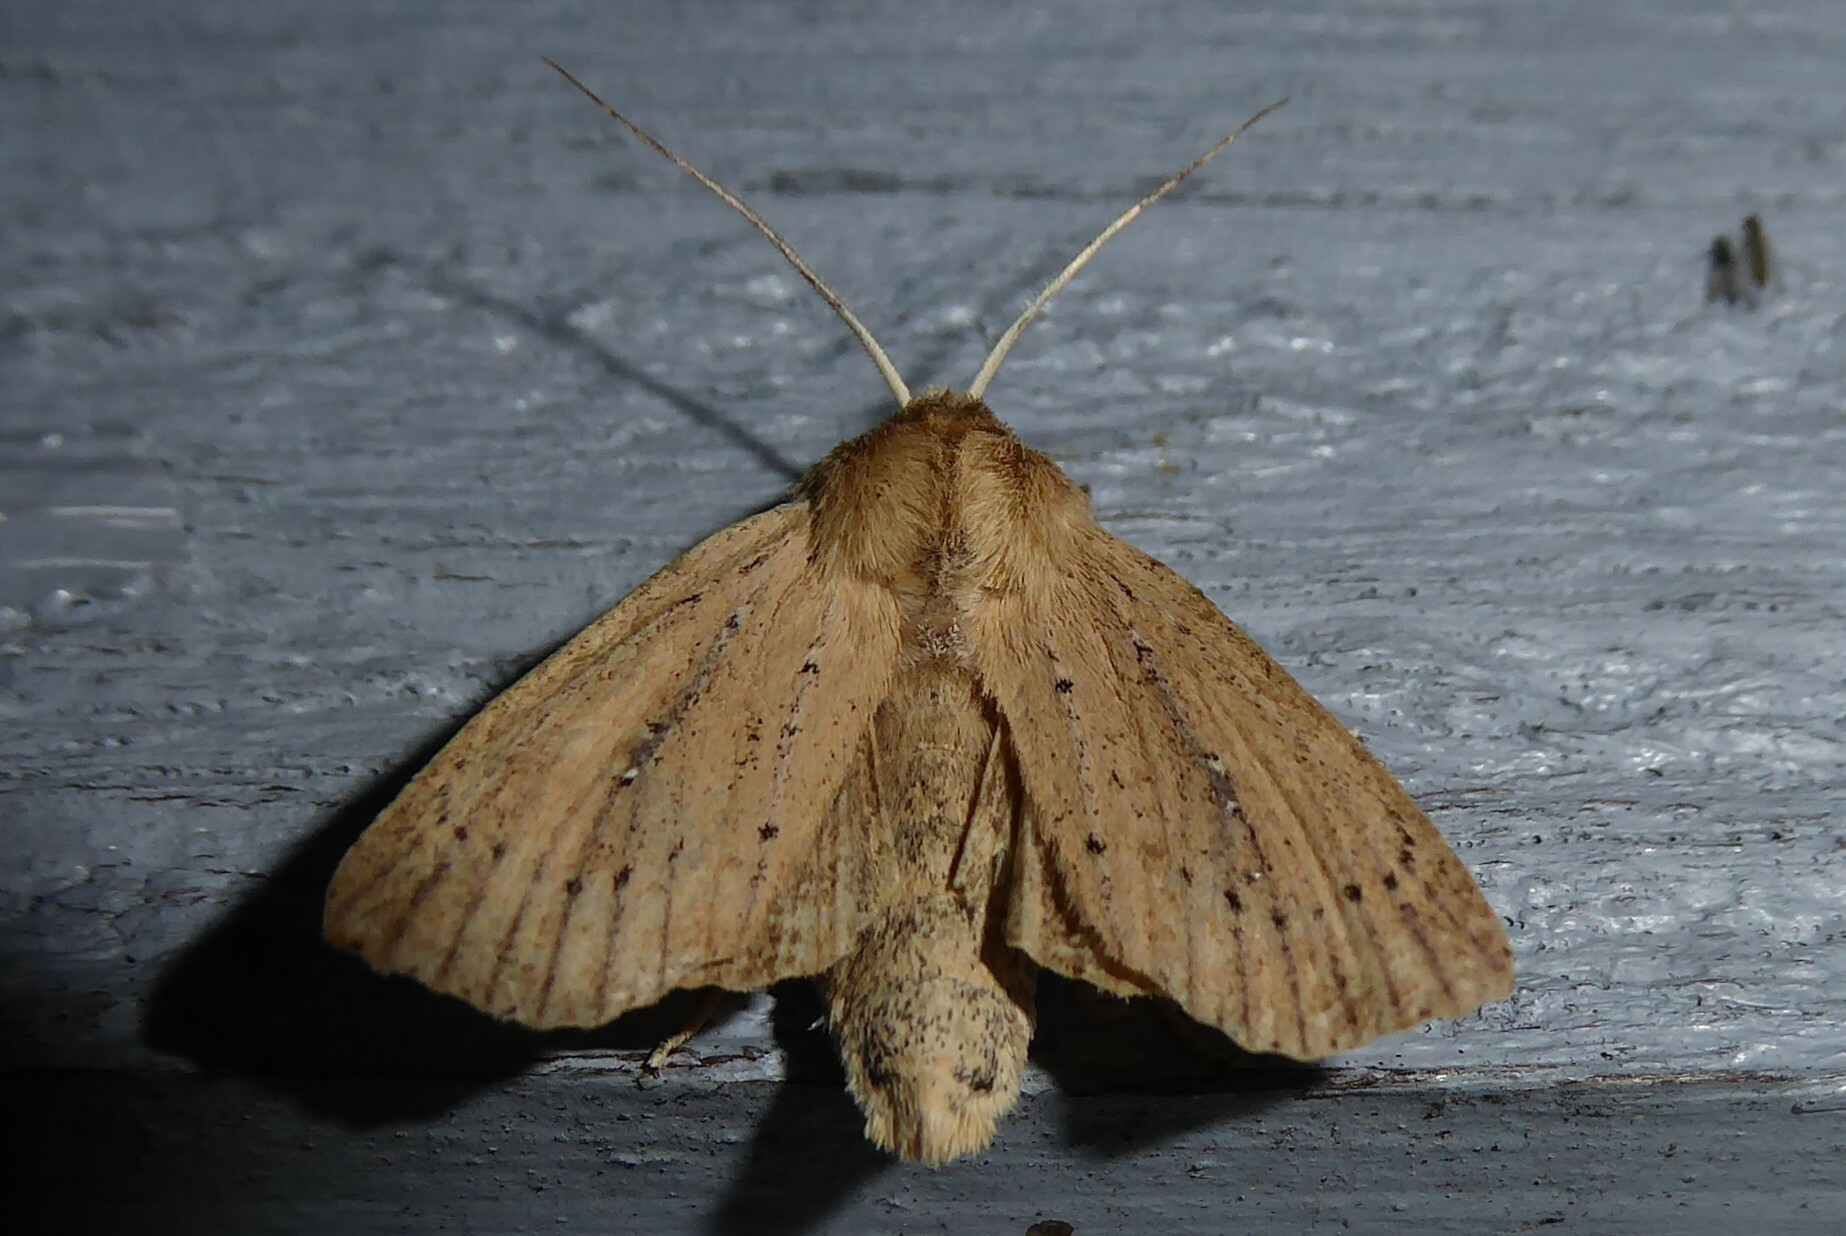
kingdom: Animalia
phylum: Arthropoda
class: Insecta
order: Lepidoptera
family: Noctuidae
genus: Ichneutica
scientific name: Ichneutica
